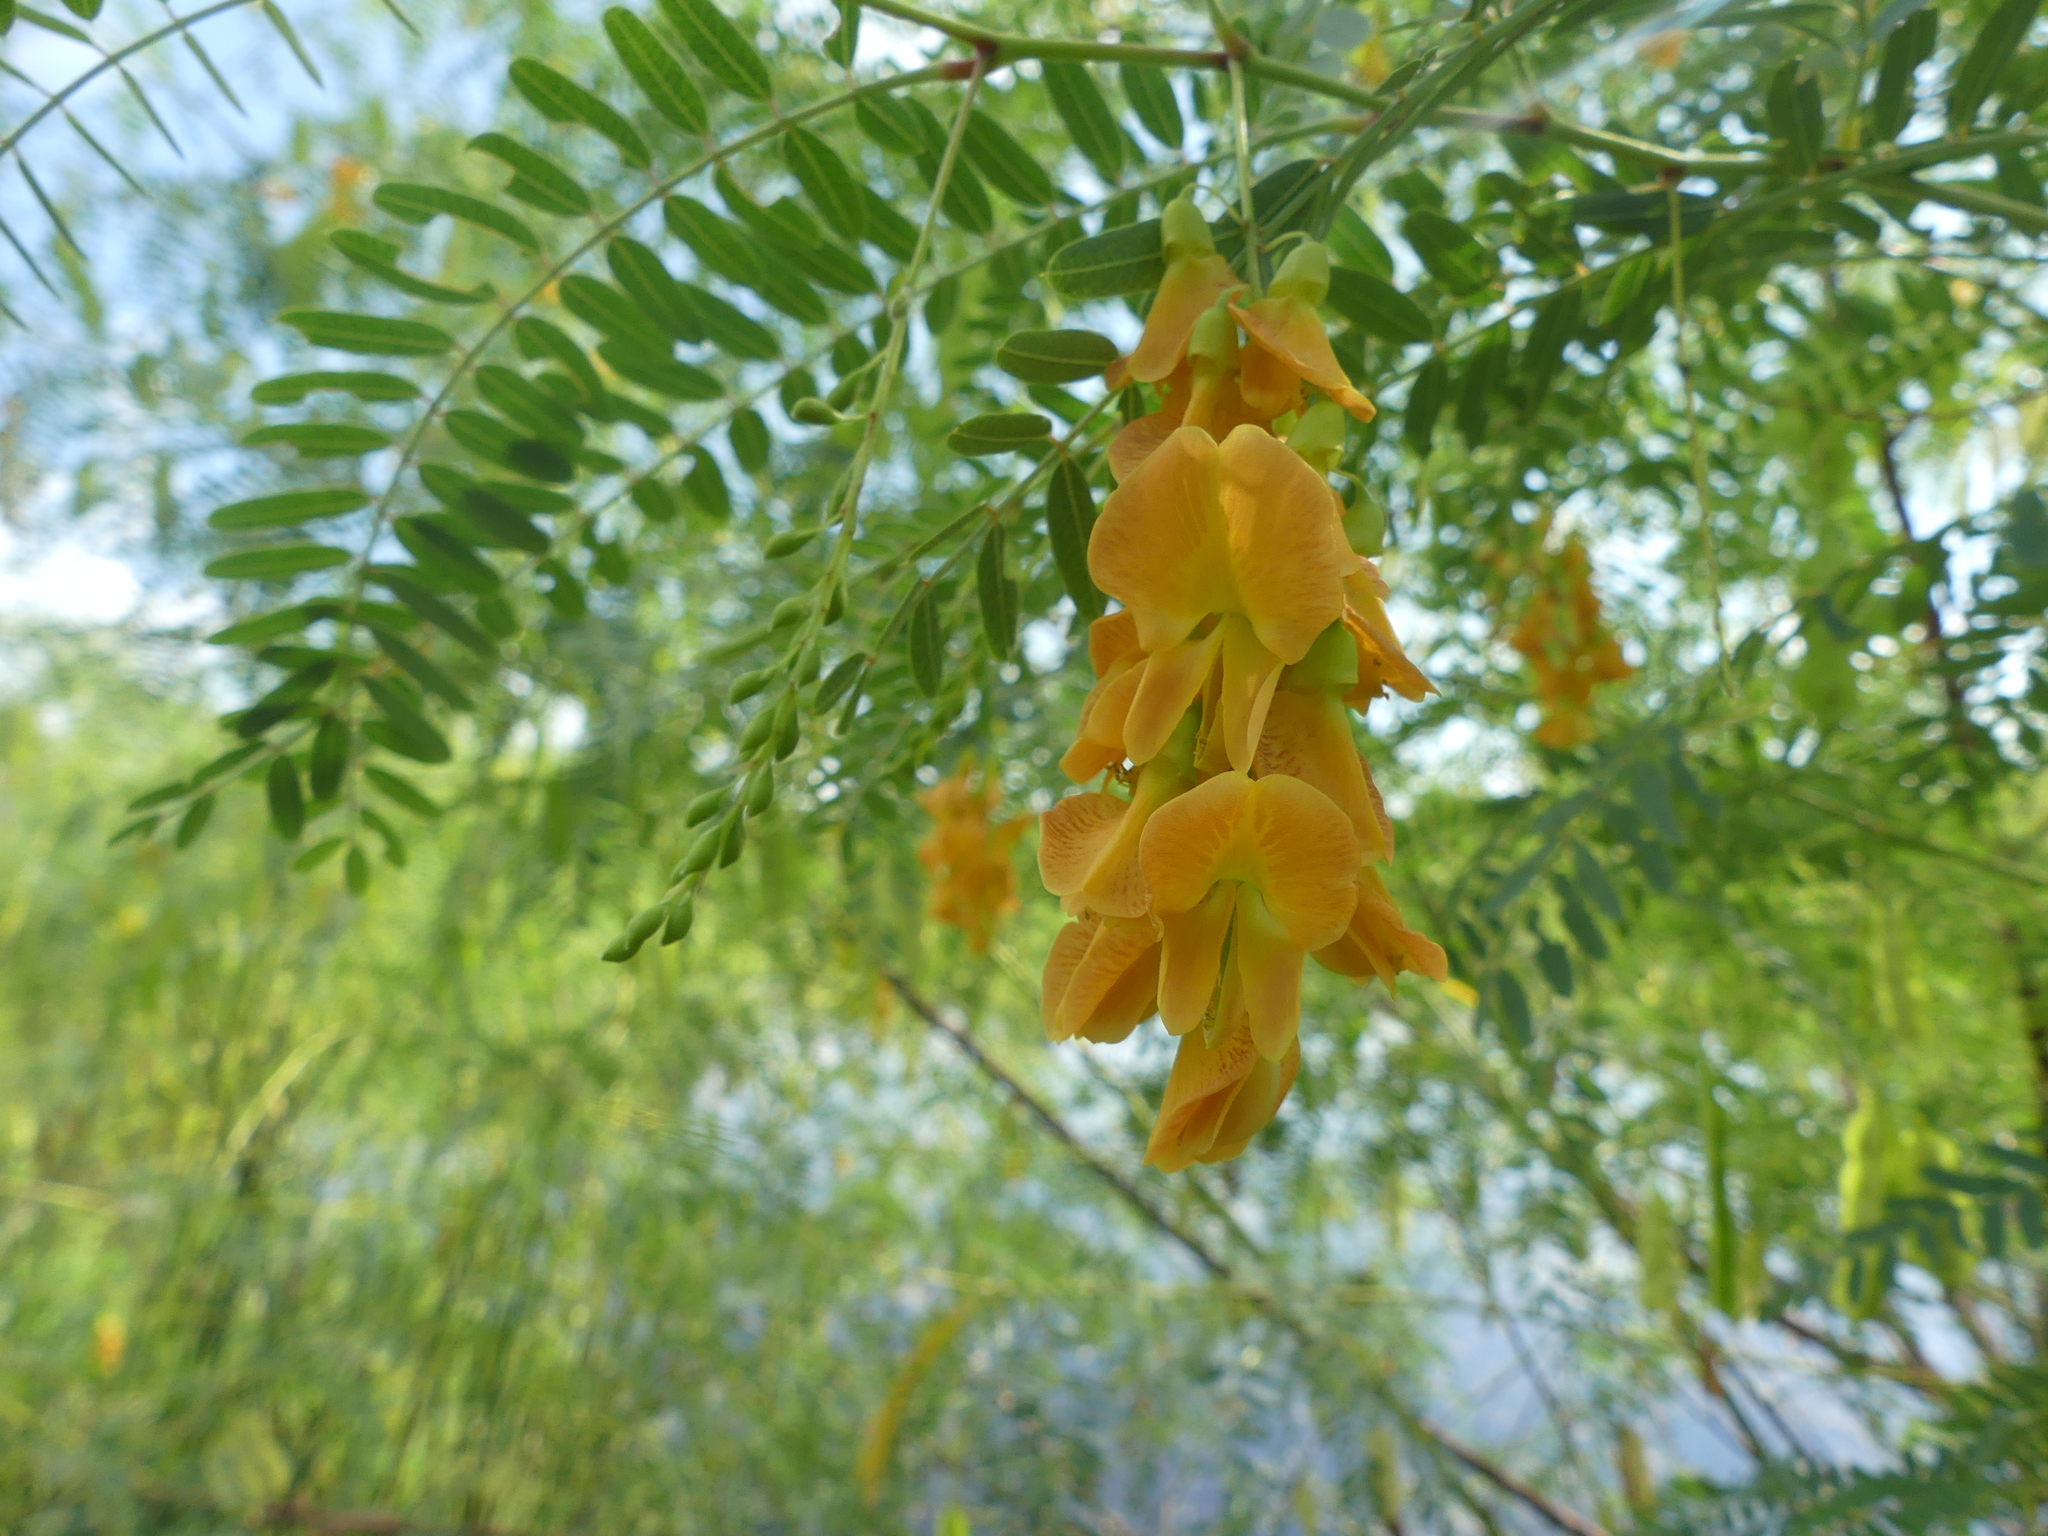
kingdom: Plantae
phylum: Tracheophyta
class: Magnoliopsida
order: Fabales
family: Fabaceae
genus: Sesbania
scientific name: Sesbania drummondii
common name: Poison-bean
